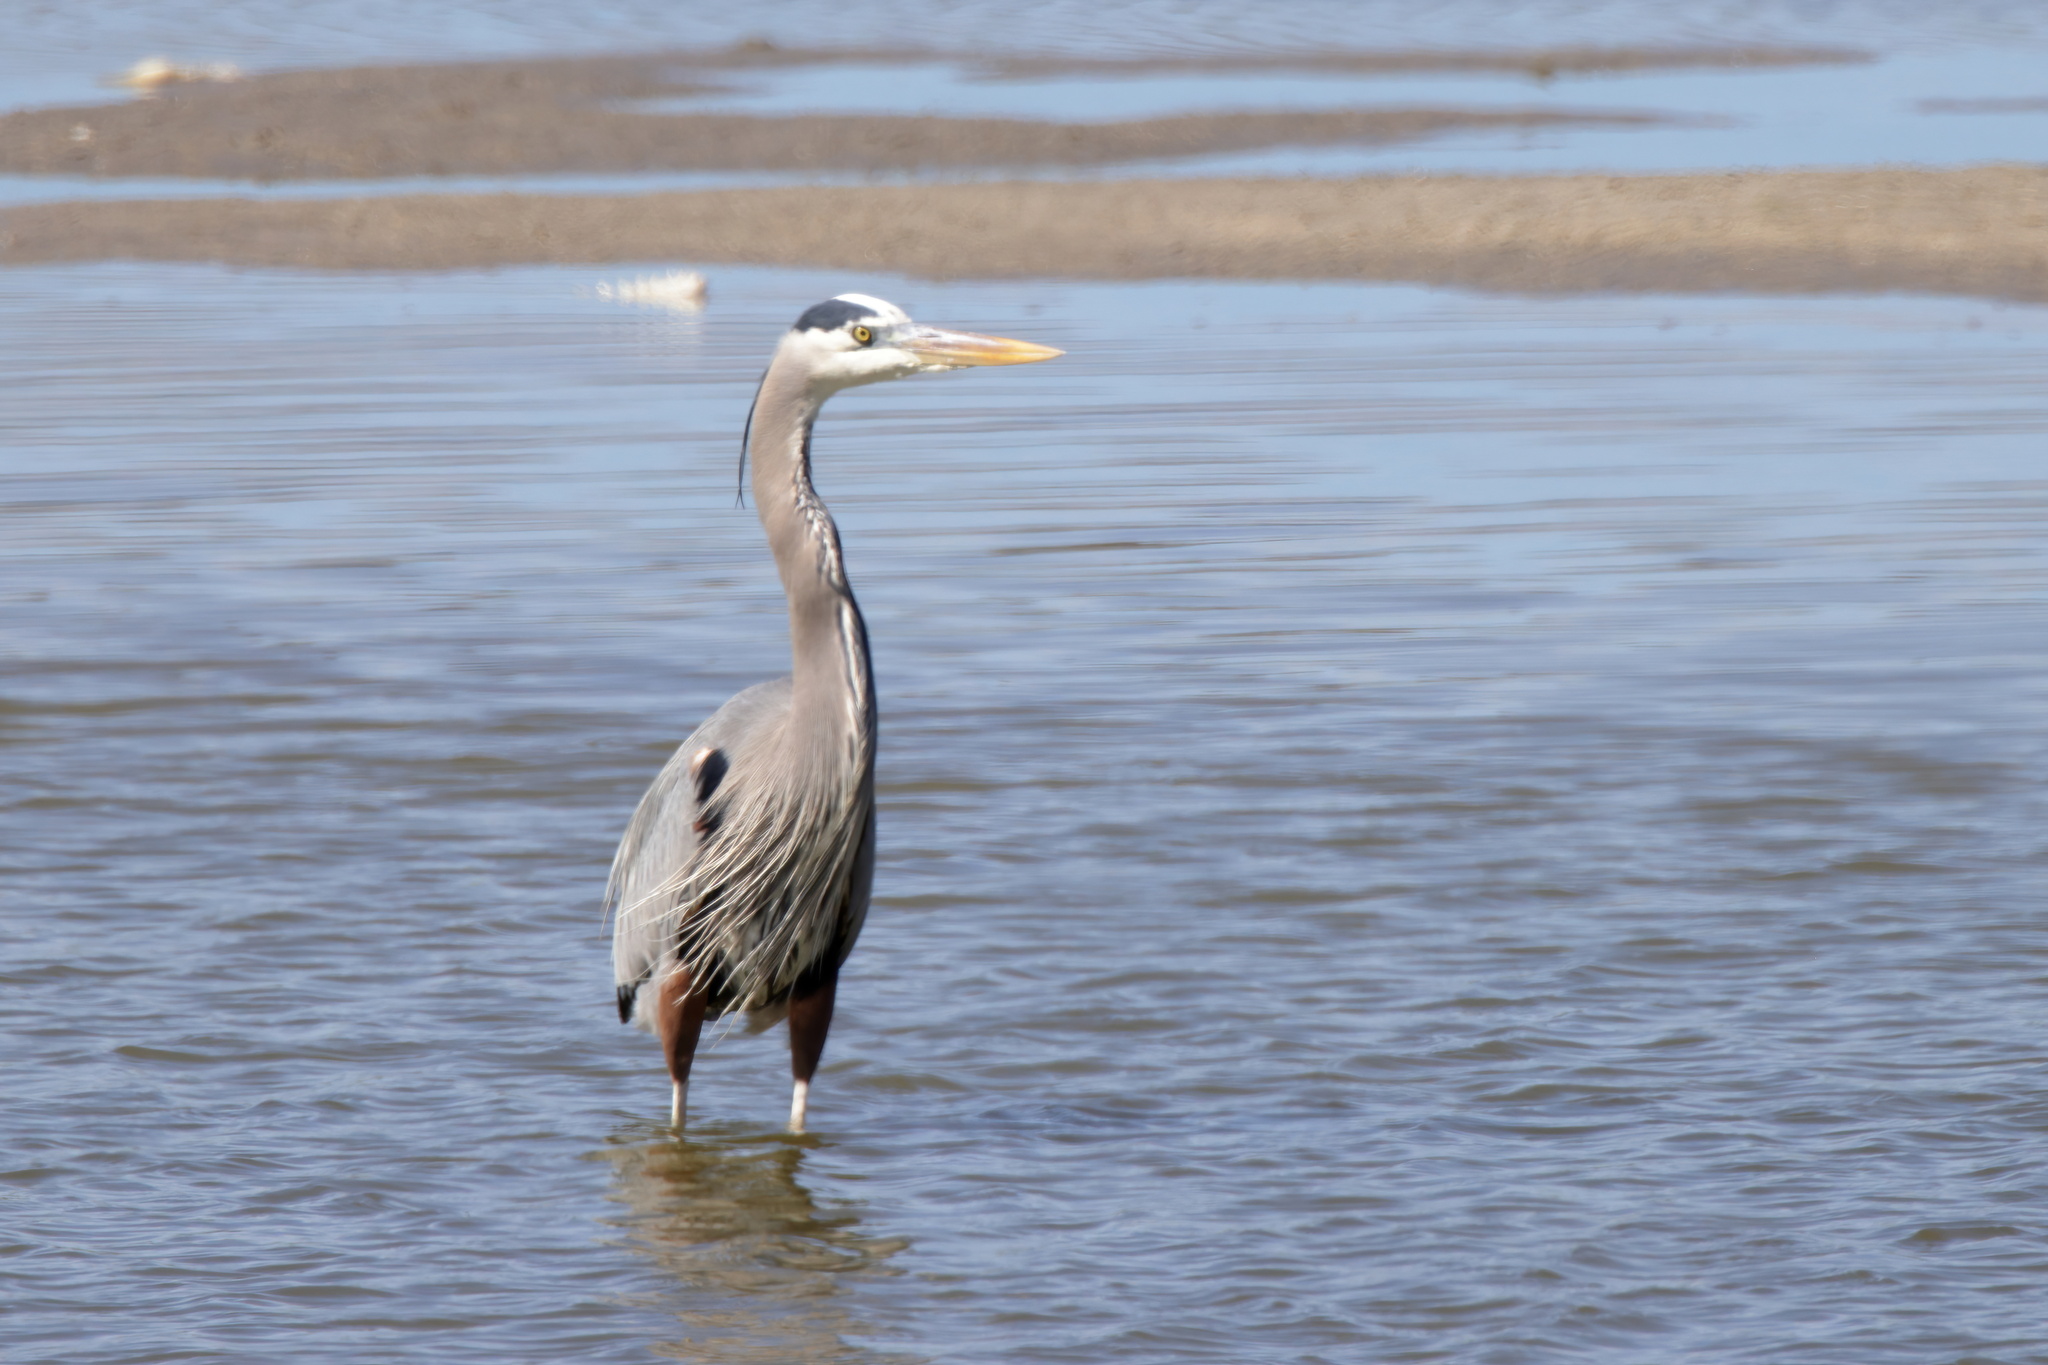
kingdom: Animalia
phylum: Chordata
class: Aves
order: Pelecaniformes
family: Ardeidae
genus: Ardea
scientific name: Ardea herodias
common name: Great blue heron
